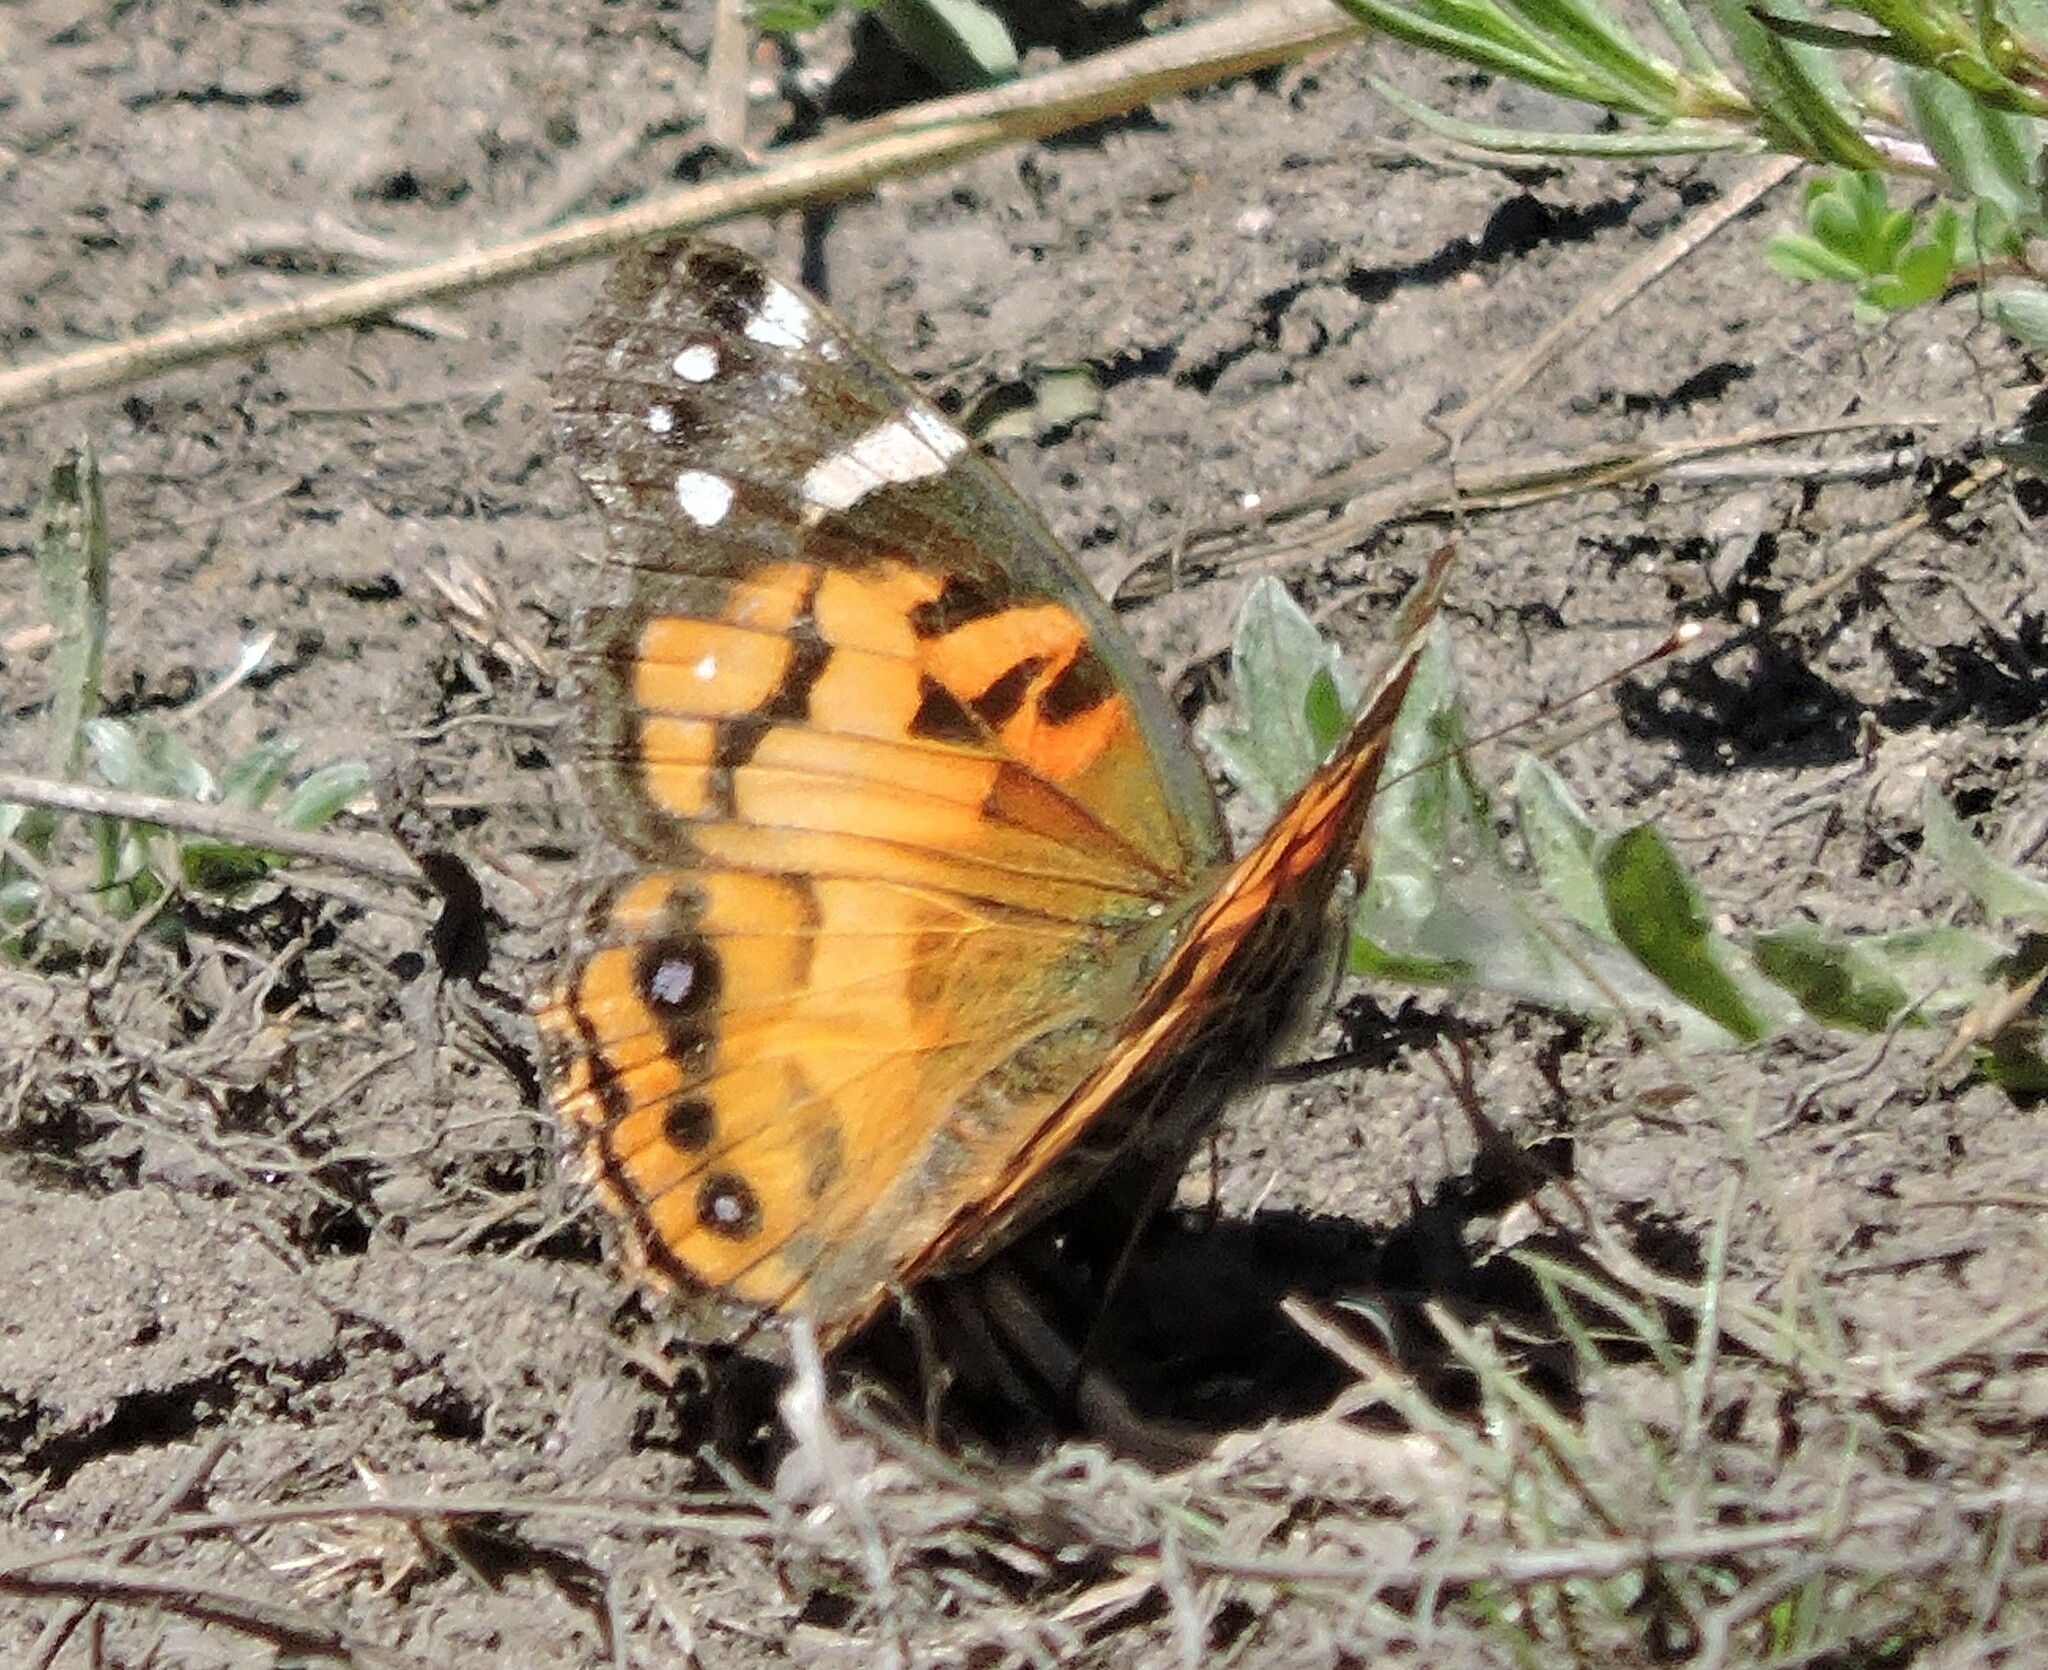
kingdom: Animalia
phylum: Arthropoda
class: Insecta
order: Lepidoptera
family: Nymphalidae
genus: Vanessa
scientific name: Vanessa virginiensis
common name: American lady
